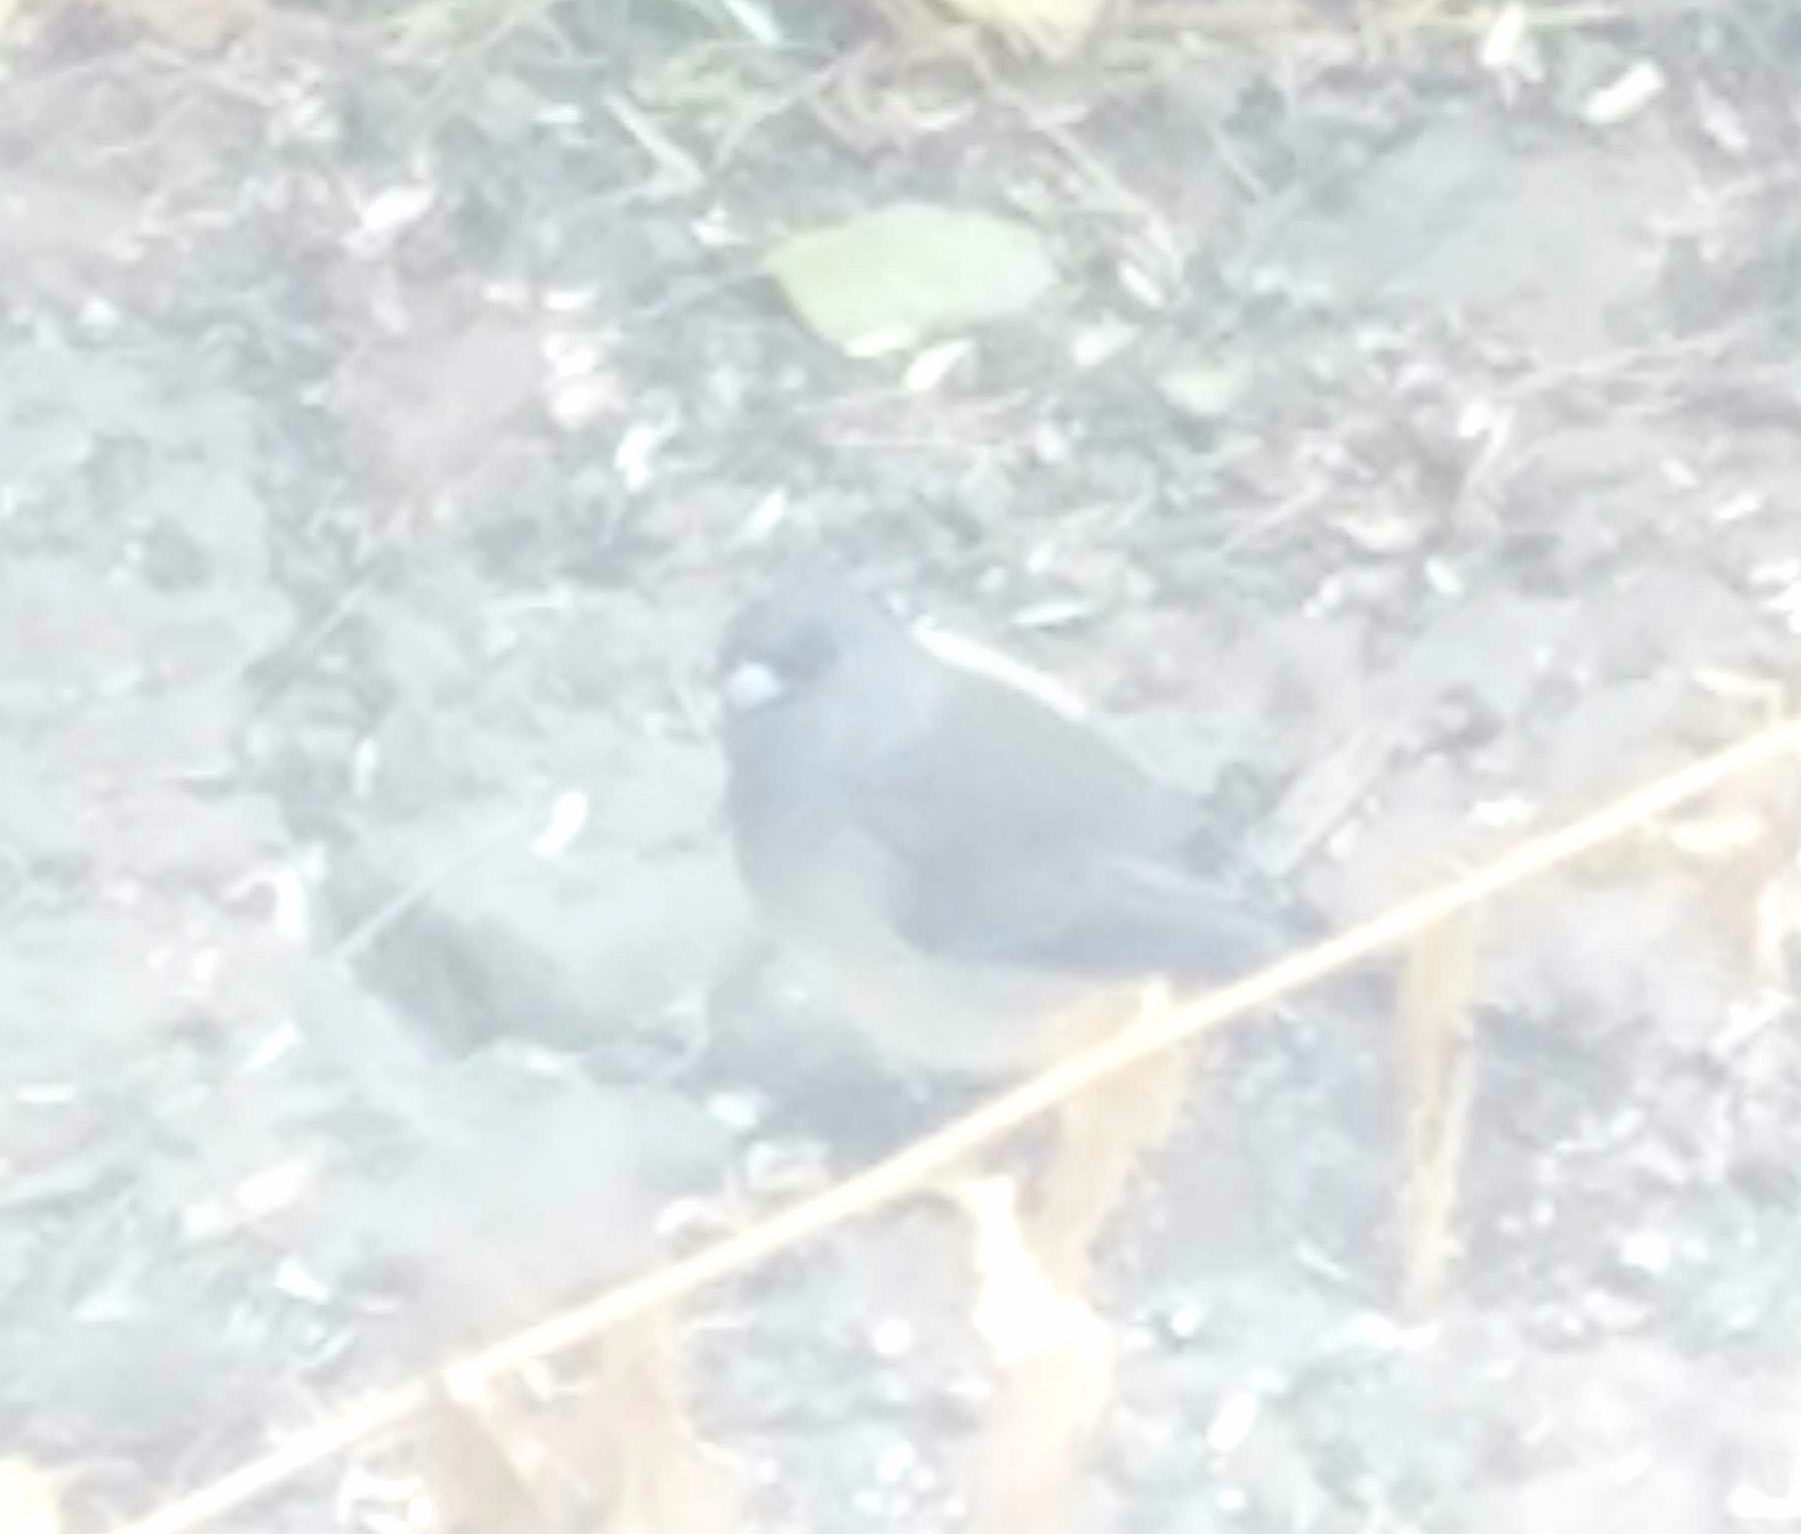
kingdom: Animalia
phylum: Chordata
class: Aves
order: Passeriformes
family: Passerellidae
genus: Junco
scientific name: Junco hyemalis
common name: Dark-eyed junco
